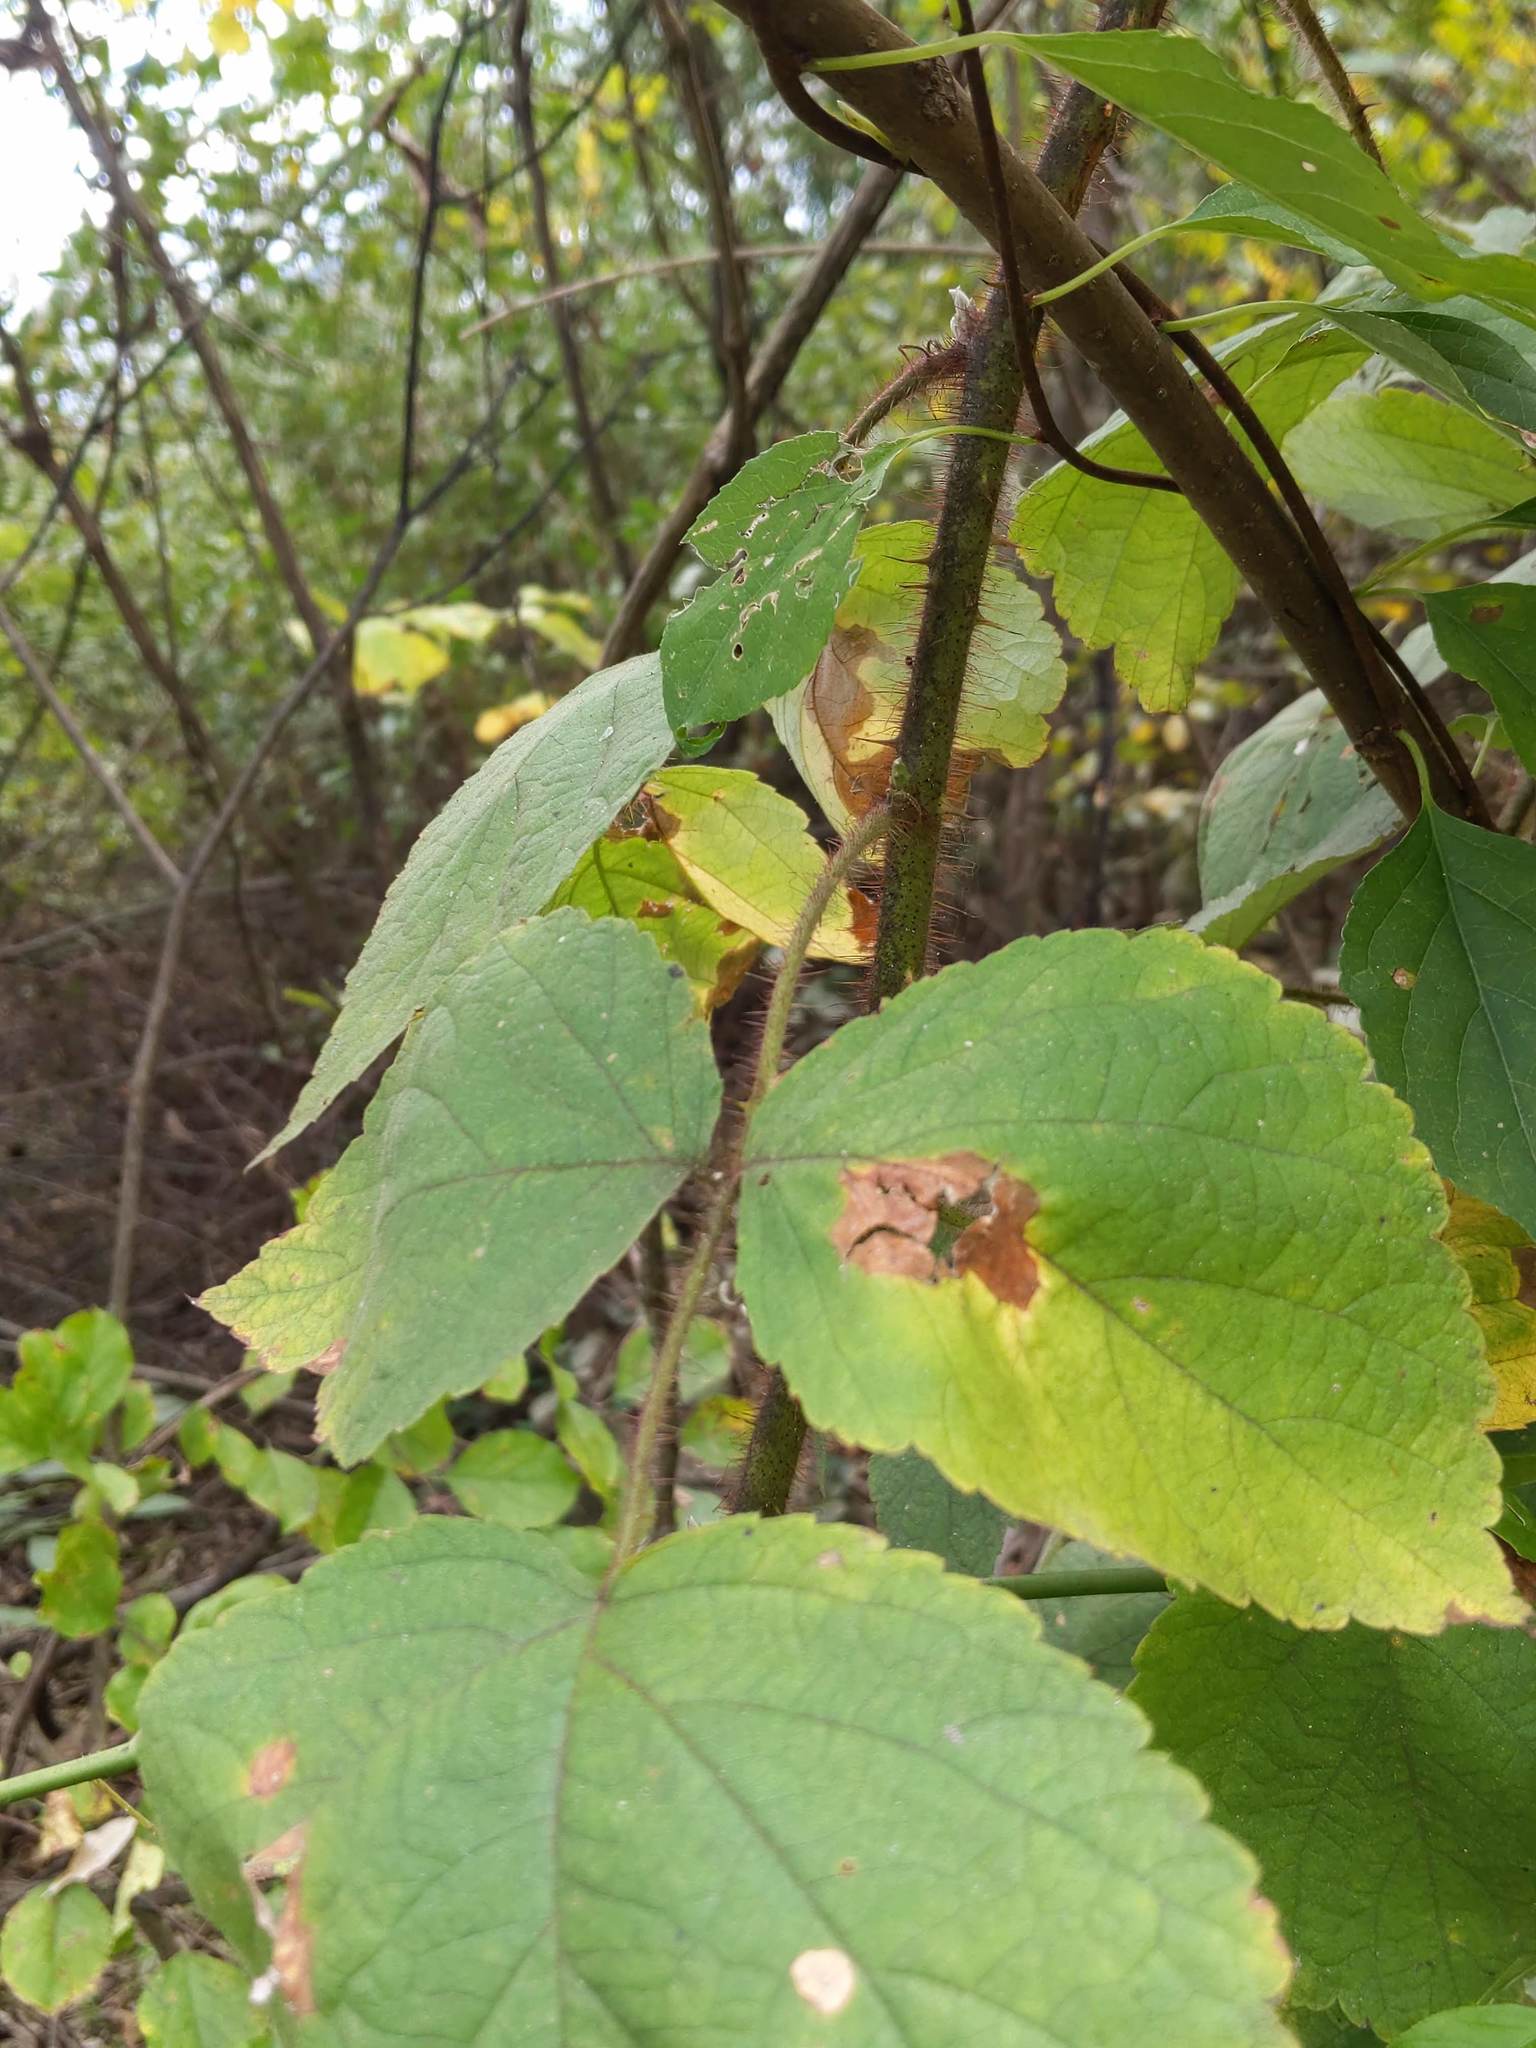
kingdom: Plantae
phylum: Tracheophyta
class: Magnoliopsida
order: Rosales
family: Rosaceae
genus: Rubus
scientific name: Rubus phoenicolasius
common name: Japanese wineberry
